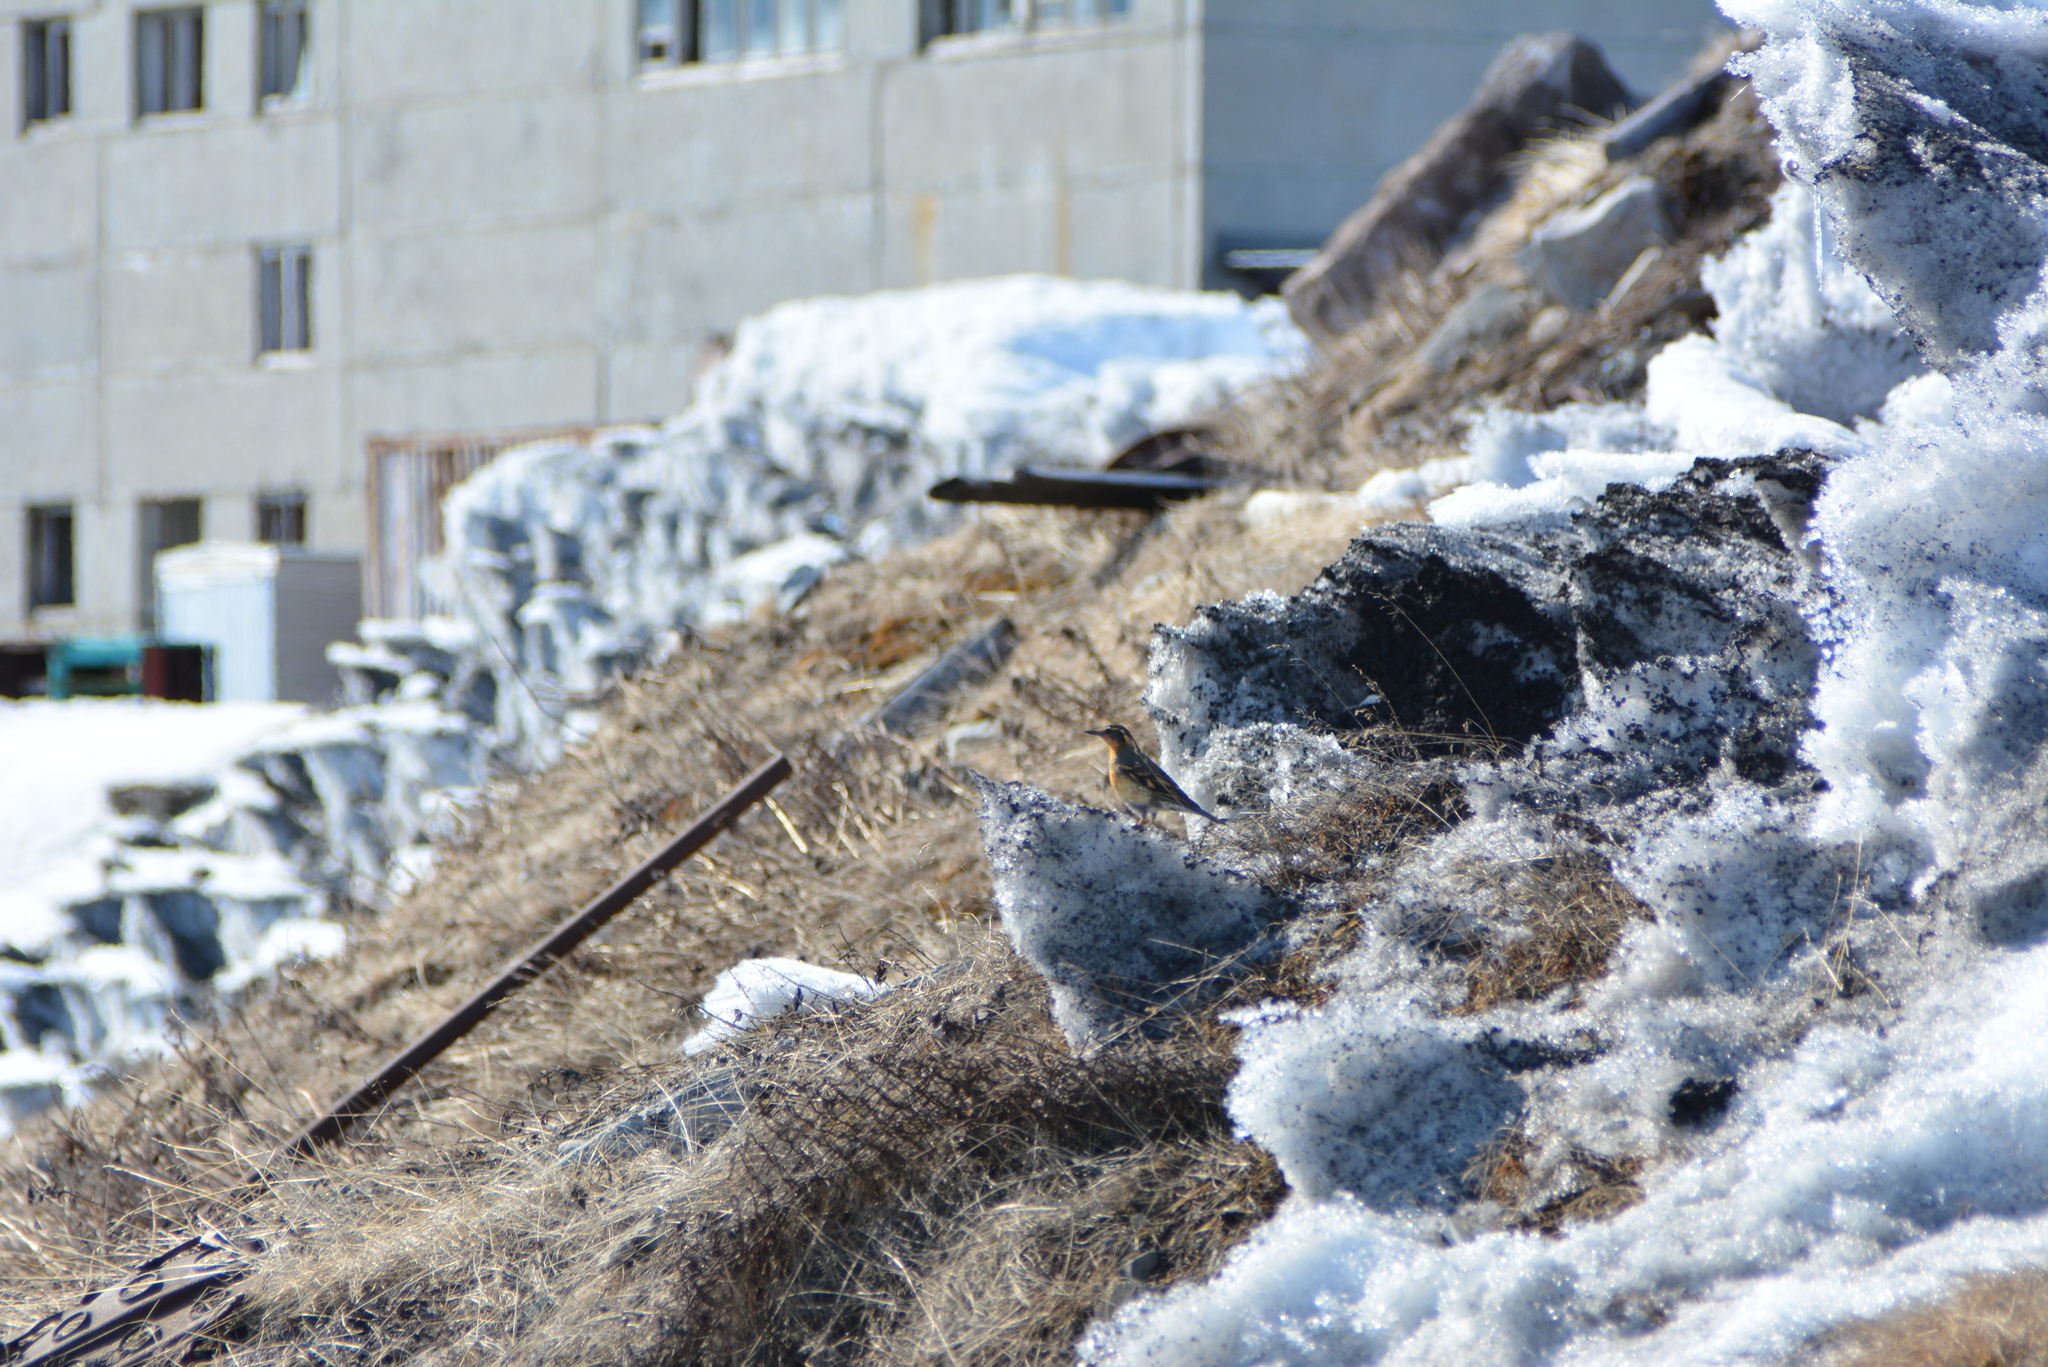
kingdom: Animalia
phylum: Chordata
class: Aves
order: Passeriformes
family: Turdidae
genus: Ixoreus
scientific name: Ixoreus naevius
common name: Varied thrush
